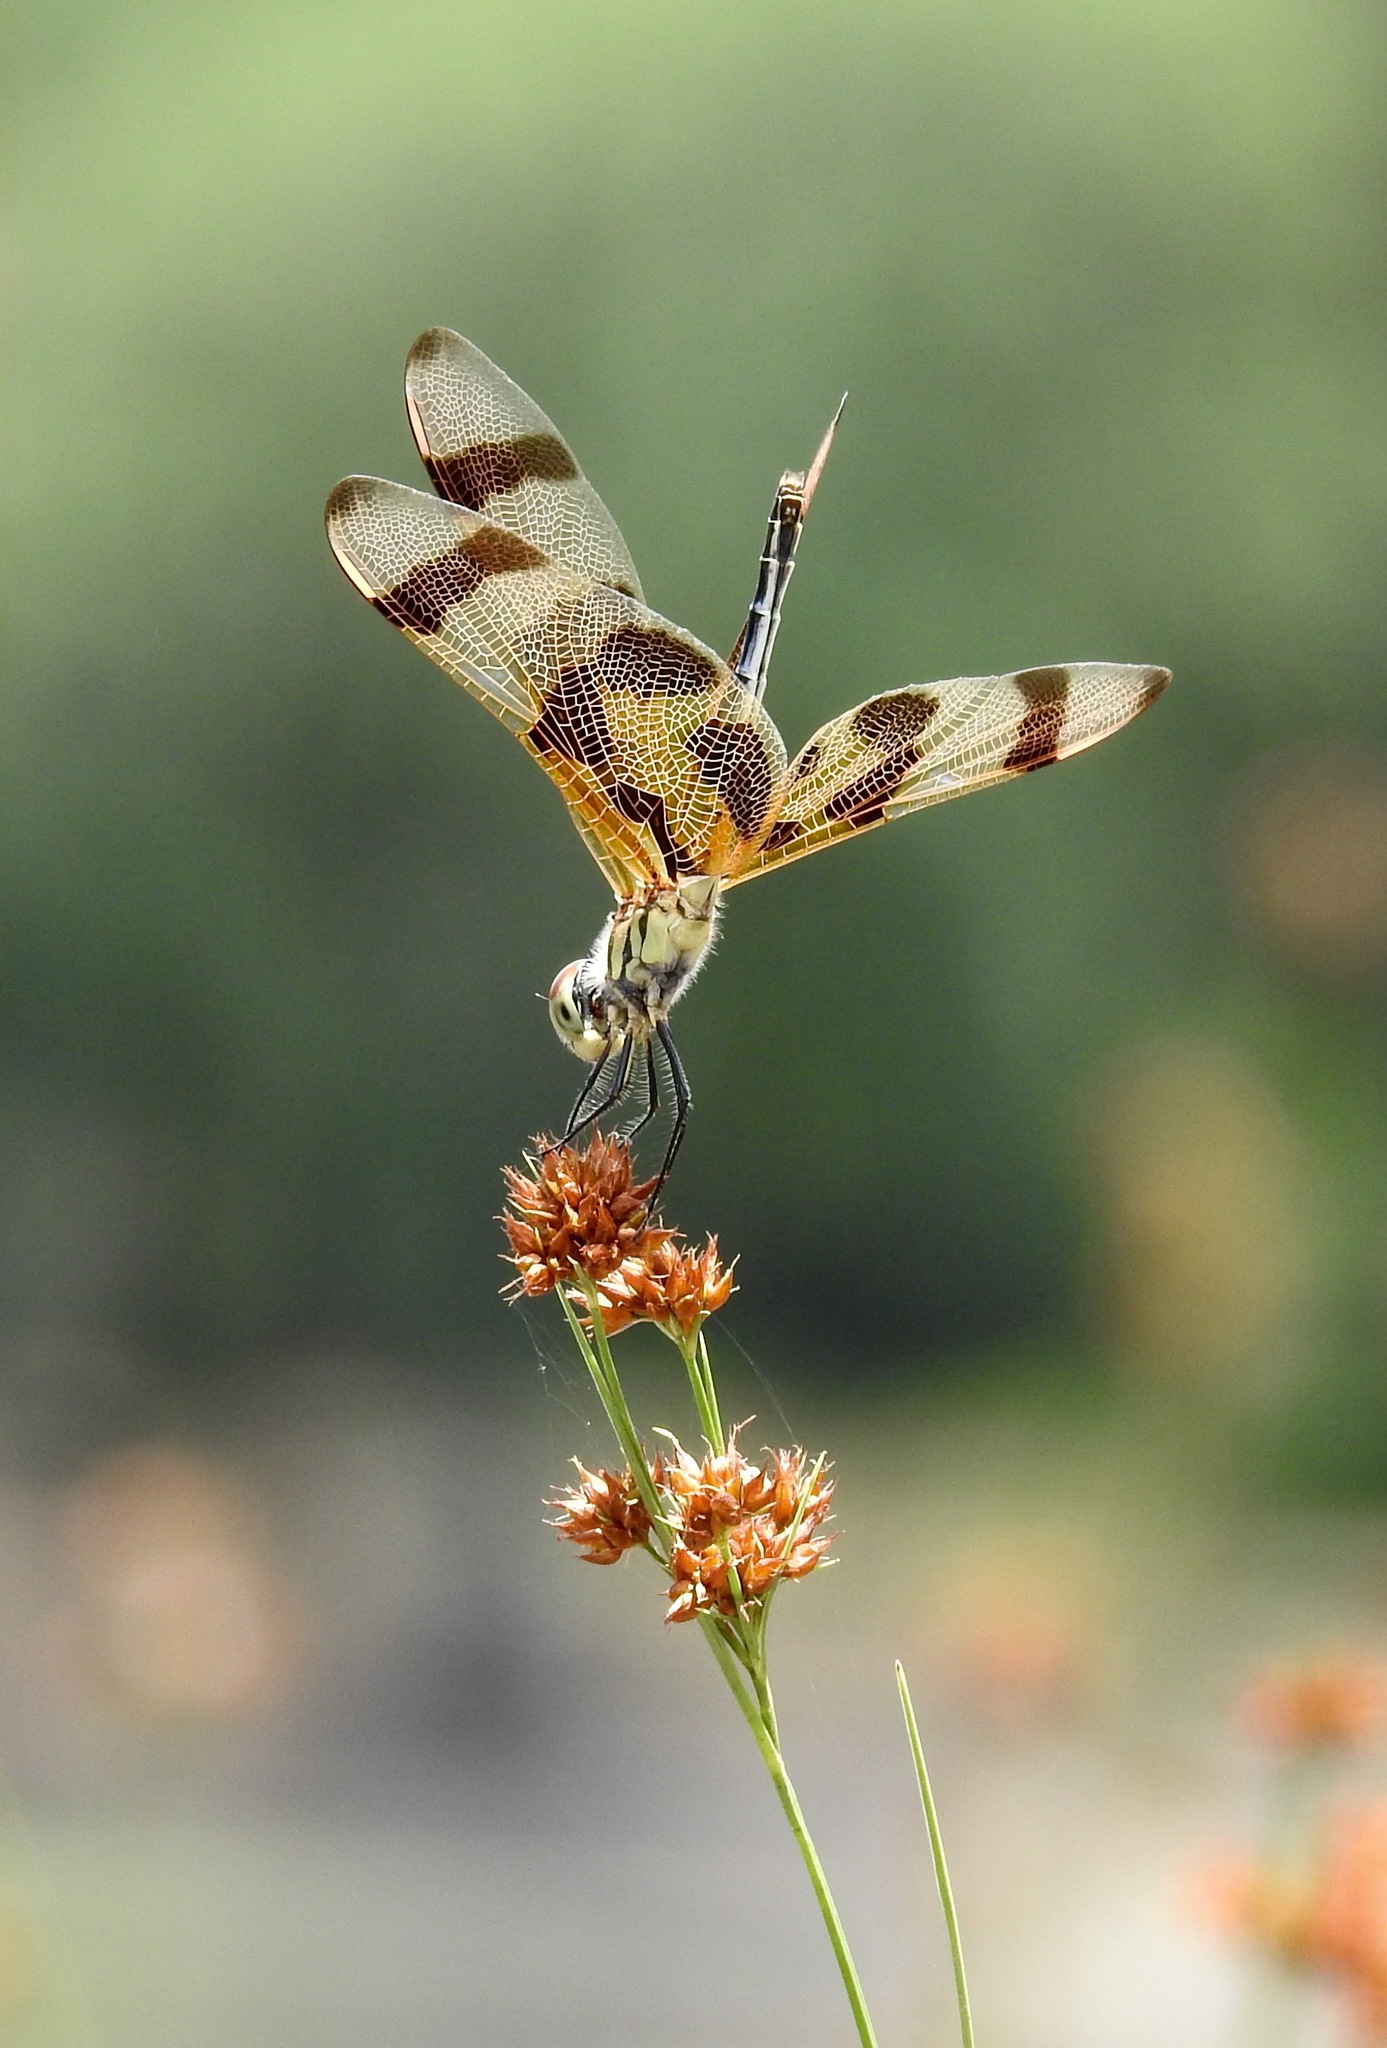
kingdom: Animalia
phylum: Arthropoda
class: Insecta
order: Odonata
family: Libellulidae
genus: Celithemis
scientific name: Celithemis eponina
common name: Halloween pennant
